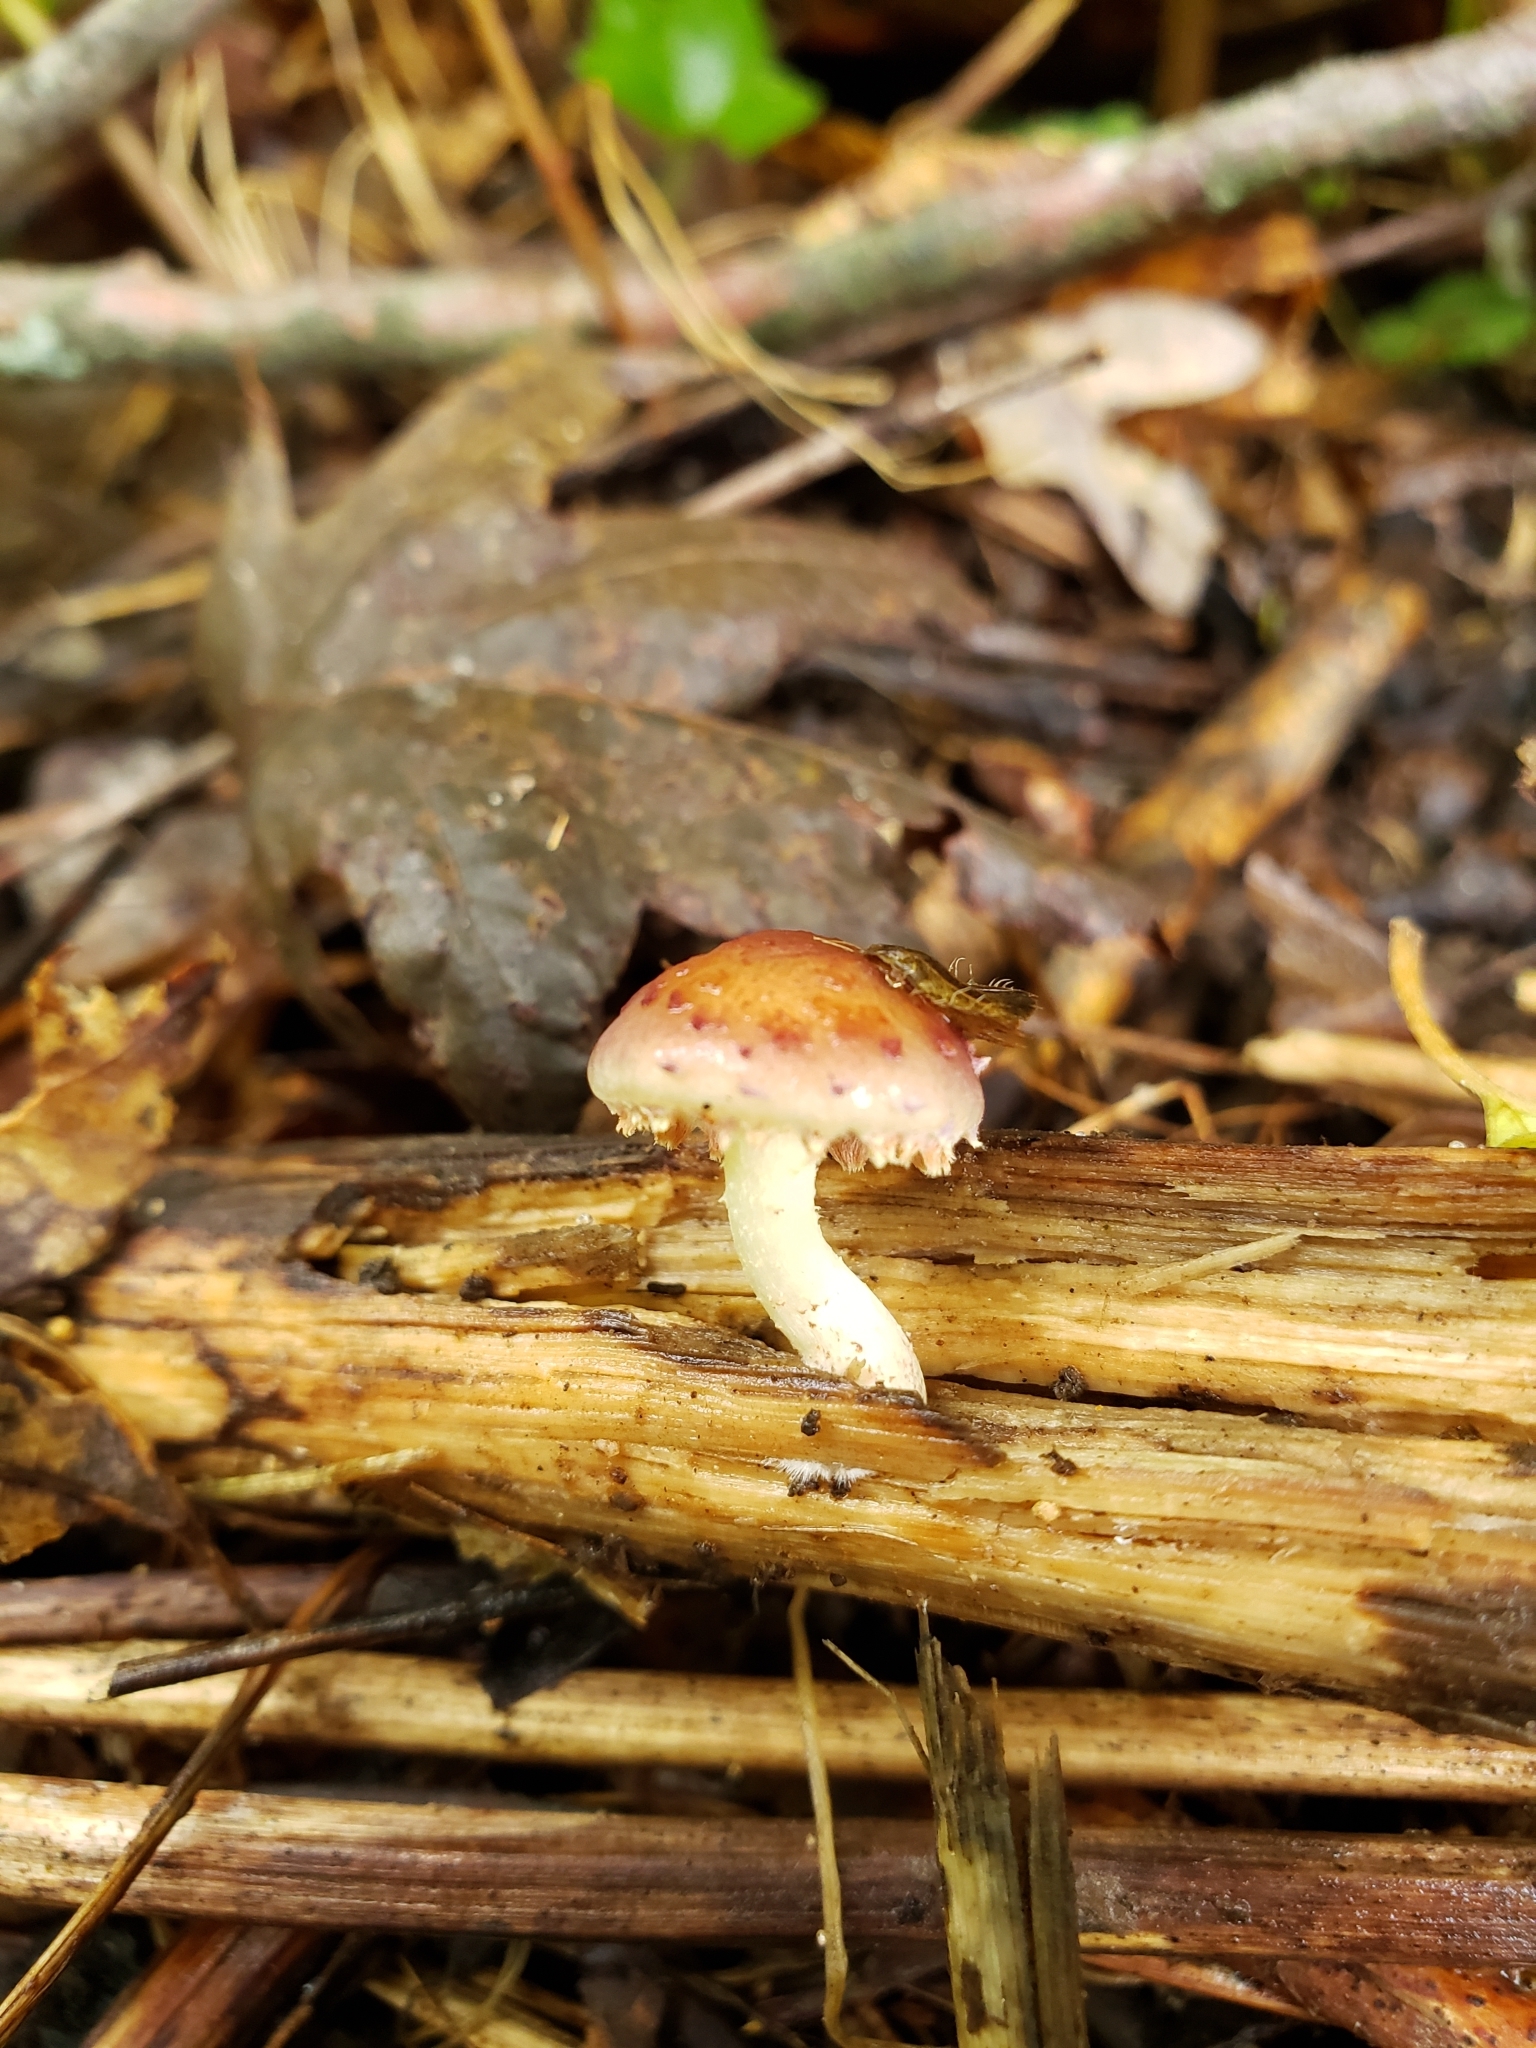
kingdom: Fungi
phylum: Basidiomycota
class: Agaricomycetes
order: Agaricales
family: Strophariaceae
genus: Pholiota
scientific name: Pholiota polychroa
